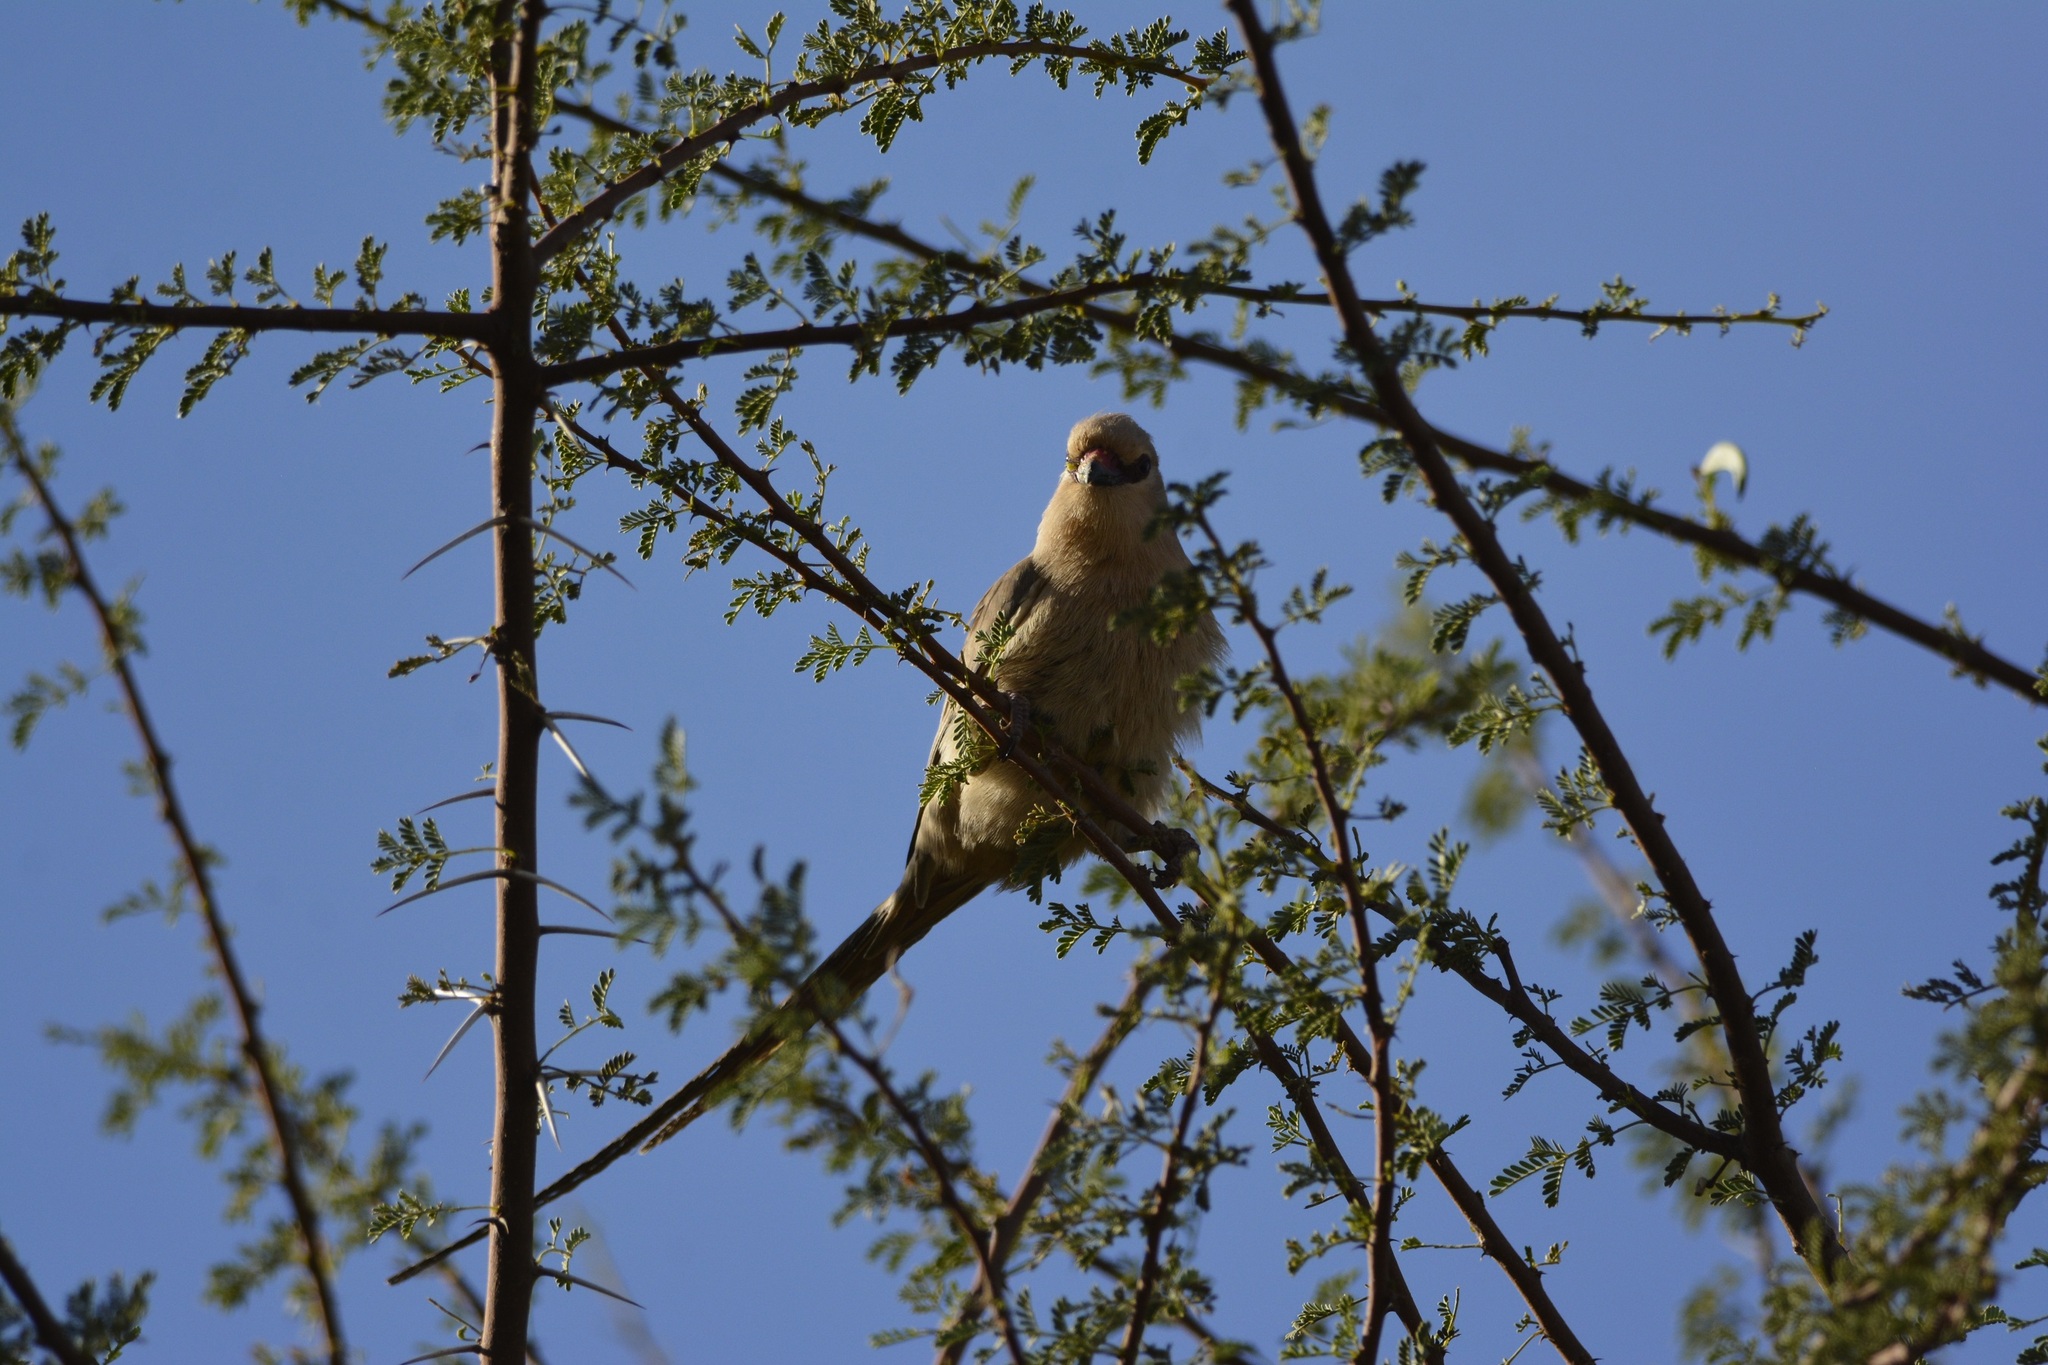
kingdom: Animalia
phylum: Chordata
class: Aves
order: Coliiformes
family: Coliidae
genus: Urocolius
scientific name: Urocolius macrourus
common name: Blue-naped mousebird
